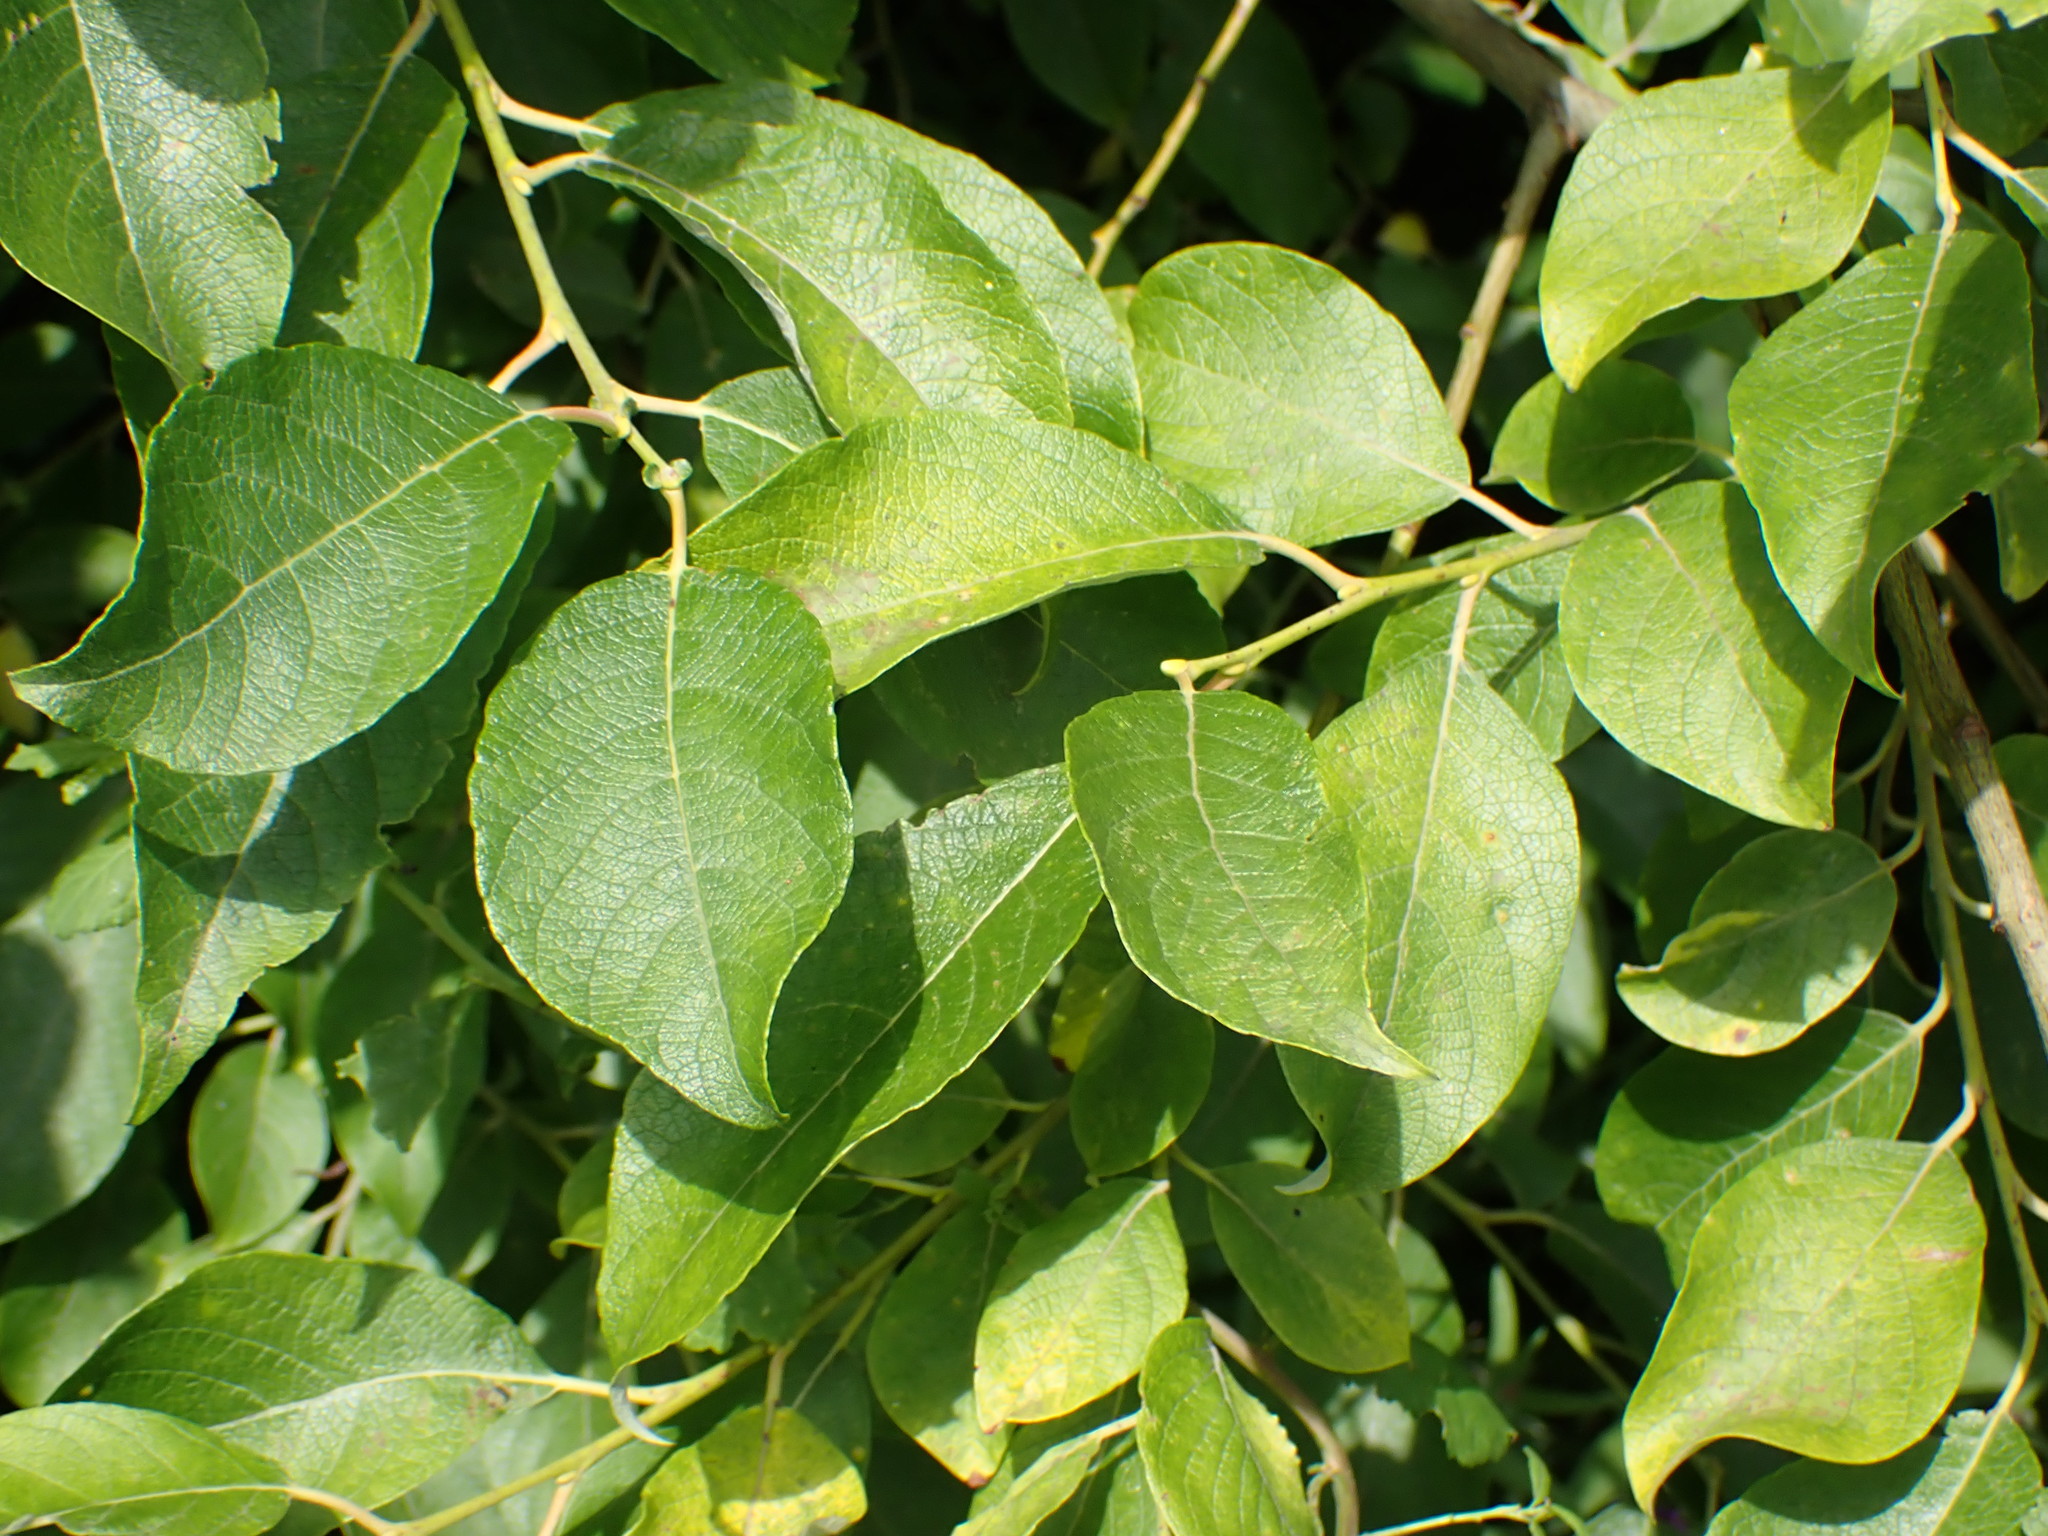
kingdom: Plantae
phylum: Tracheophyta
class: Magnoliopsida
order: Malpighiales
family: Salicaceae
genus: Salix
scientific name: Salix caprea
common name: Goat willow
